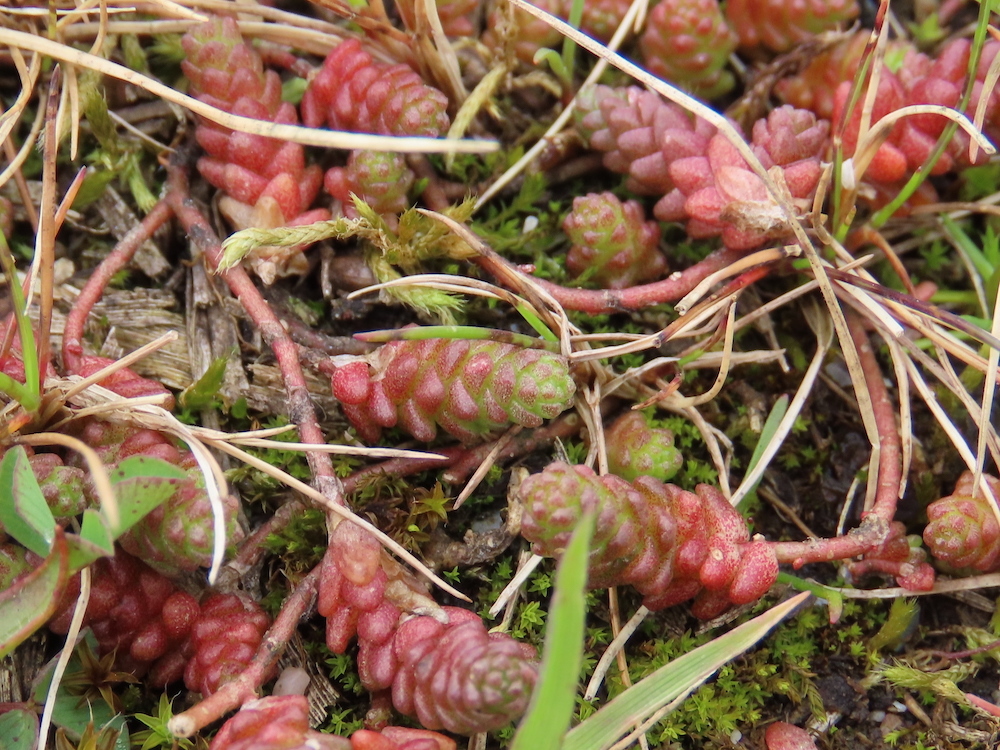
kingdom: Plantae
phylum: Tracheophyta
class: Magnoliopsida
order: Saxifragales
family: Crassulaceae
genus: Sedum
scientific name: Sedum acre
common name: Biting stonecrop
